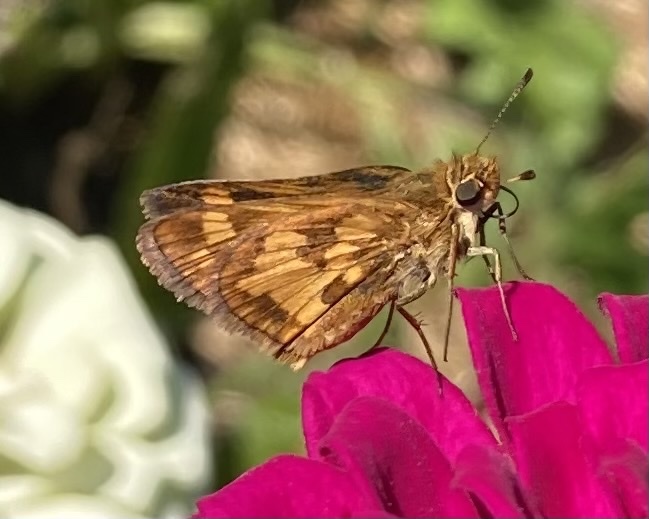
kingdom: Animalia
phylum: Arthropoda
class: Insecta
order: Lepidoptera
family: Hesperiidae
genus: Polites
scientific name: Polites coras
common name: Peck's skipper
